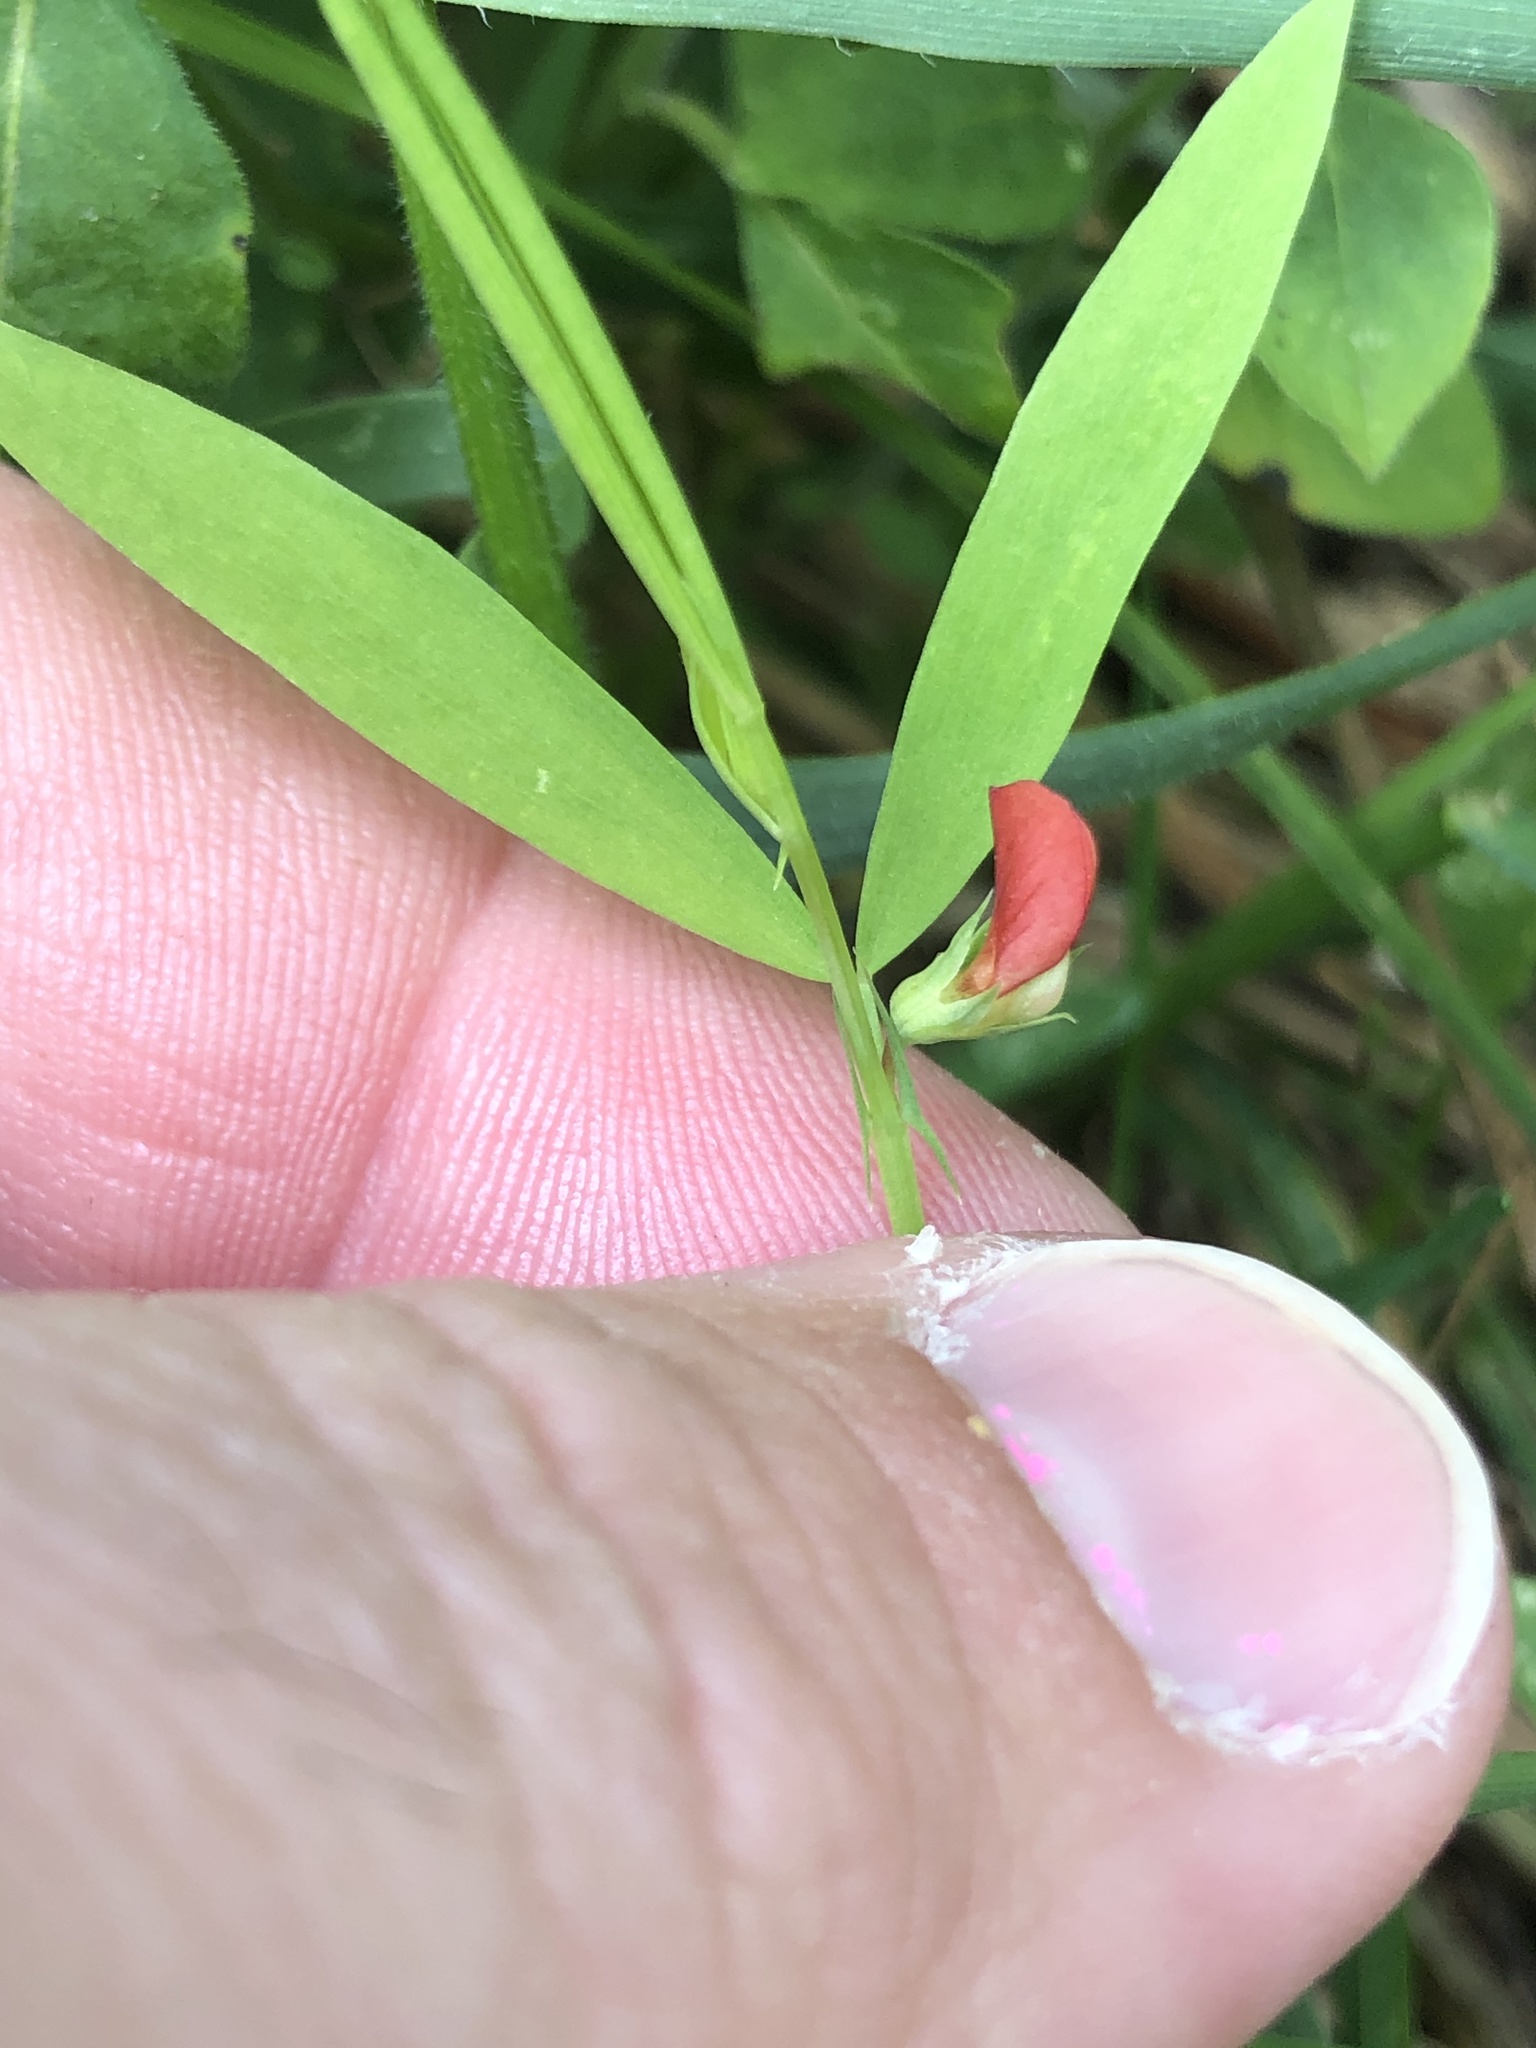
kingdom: Plantae
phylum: Tracheophyta
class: Magnoliopsida
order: Fabales
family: Fabaceae
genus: Lathyrus
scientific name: Lathyrus sphaericus
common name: Grass pea
